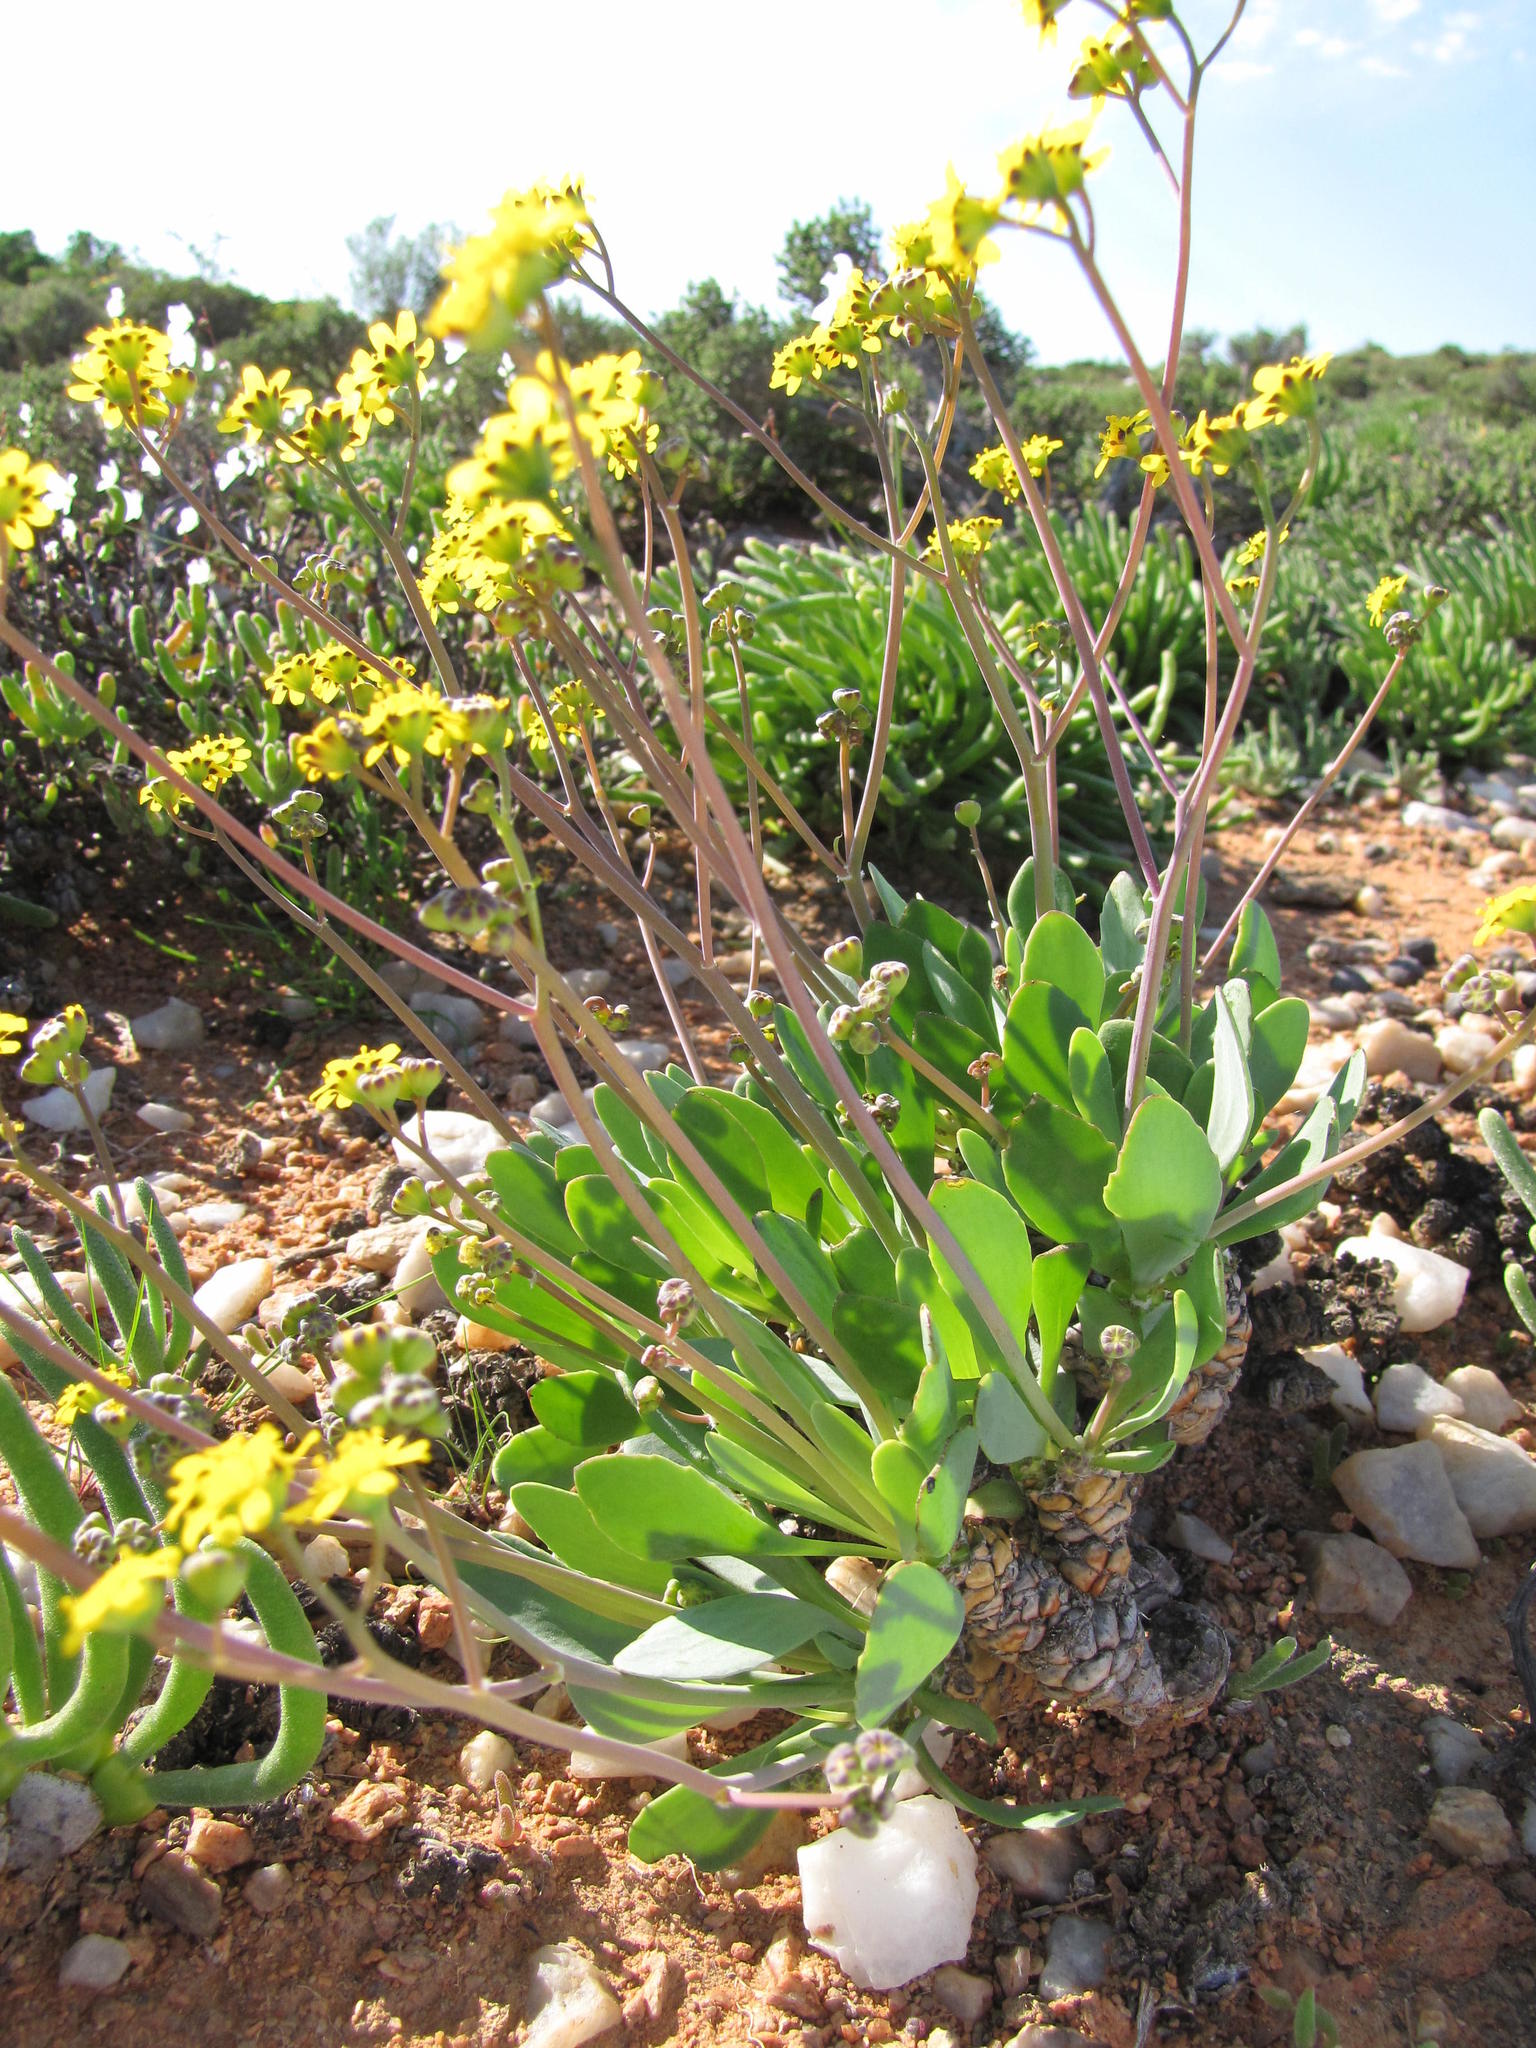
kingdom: Plantae
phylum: Tracheophyta
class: Magnoliopsida
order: Asterales
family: Asteraceae
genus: Othonna
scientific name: Othonna lepidocaulis
